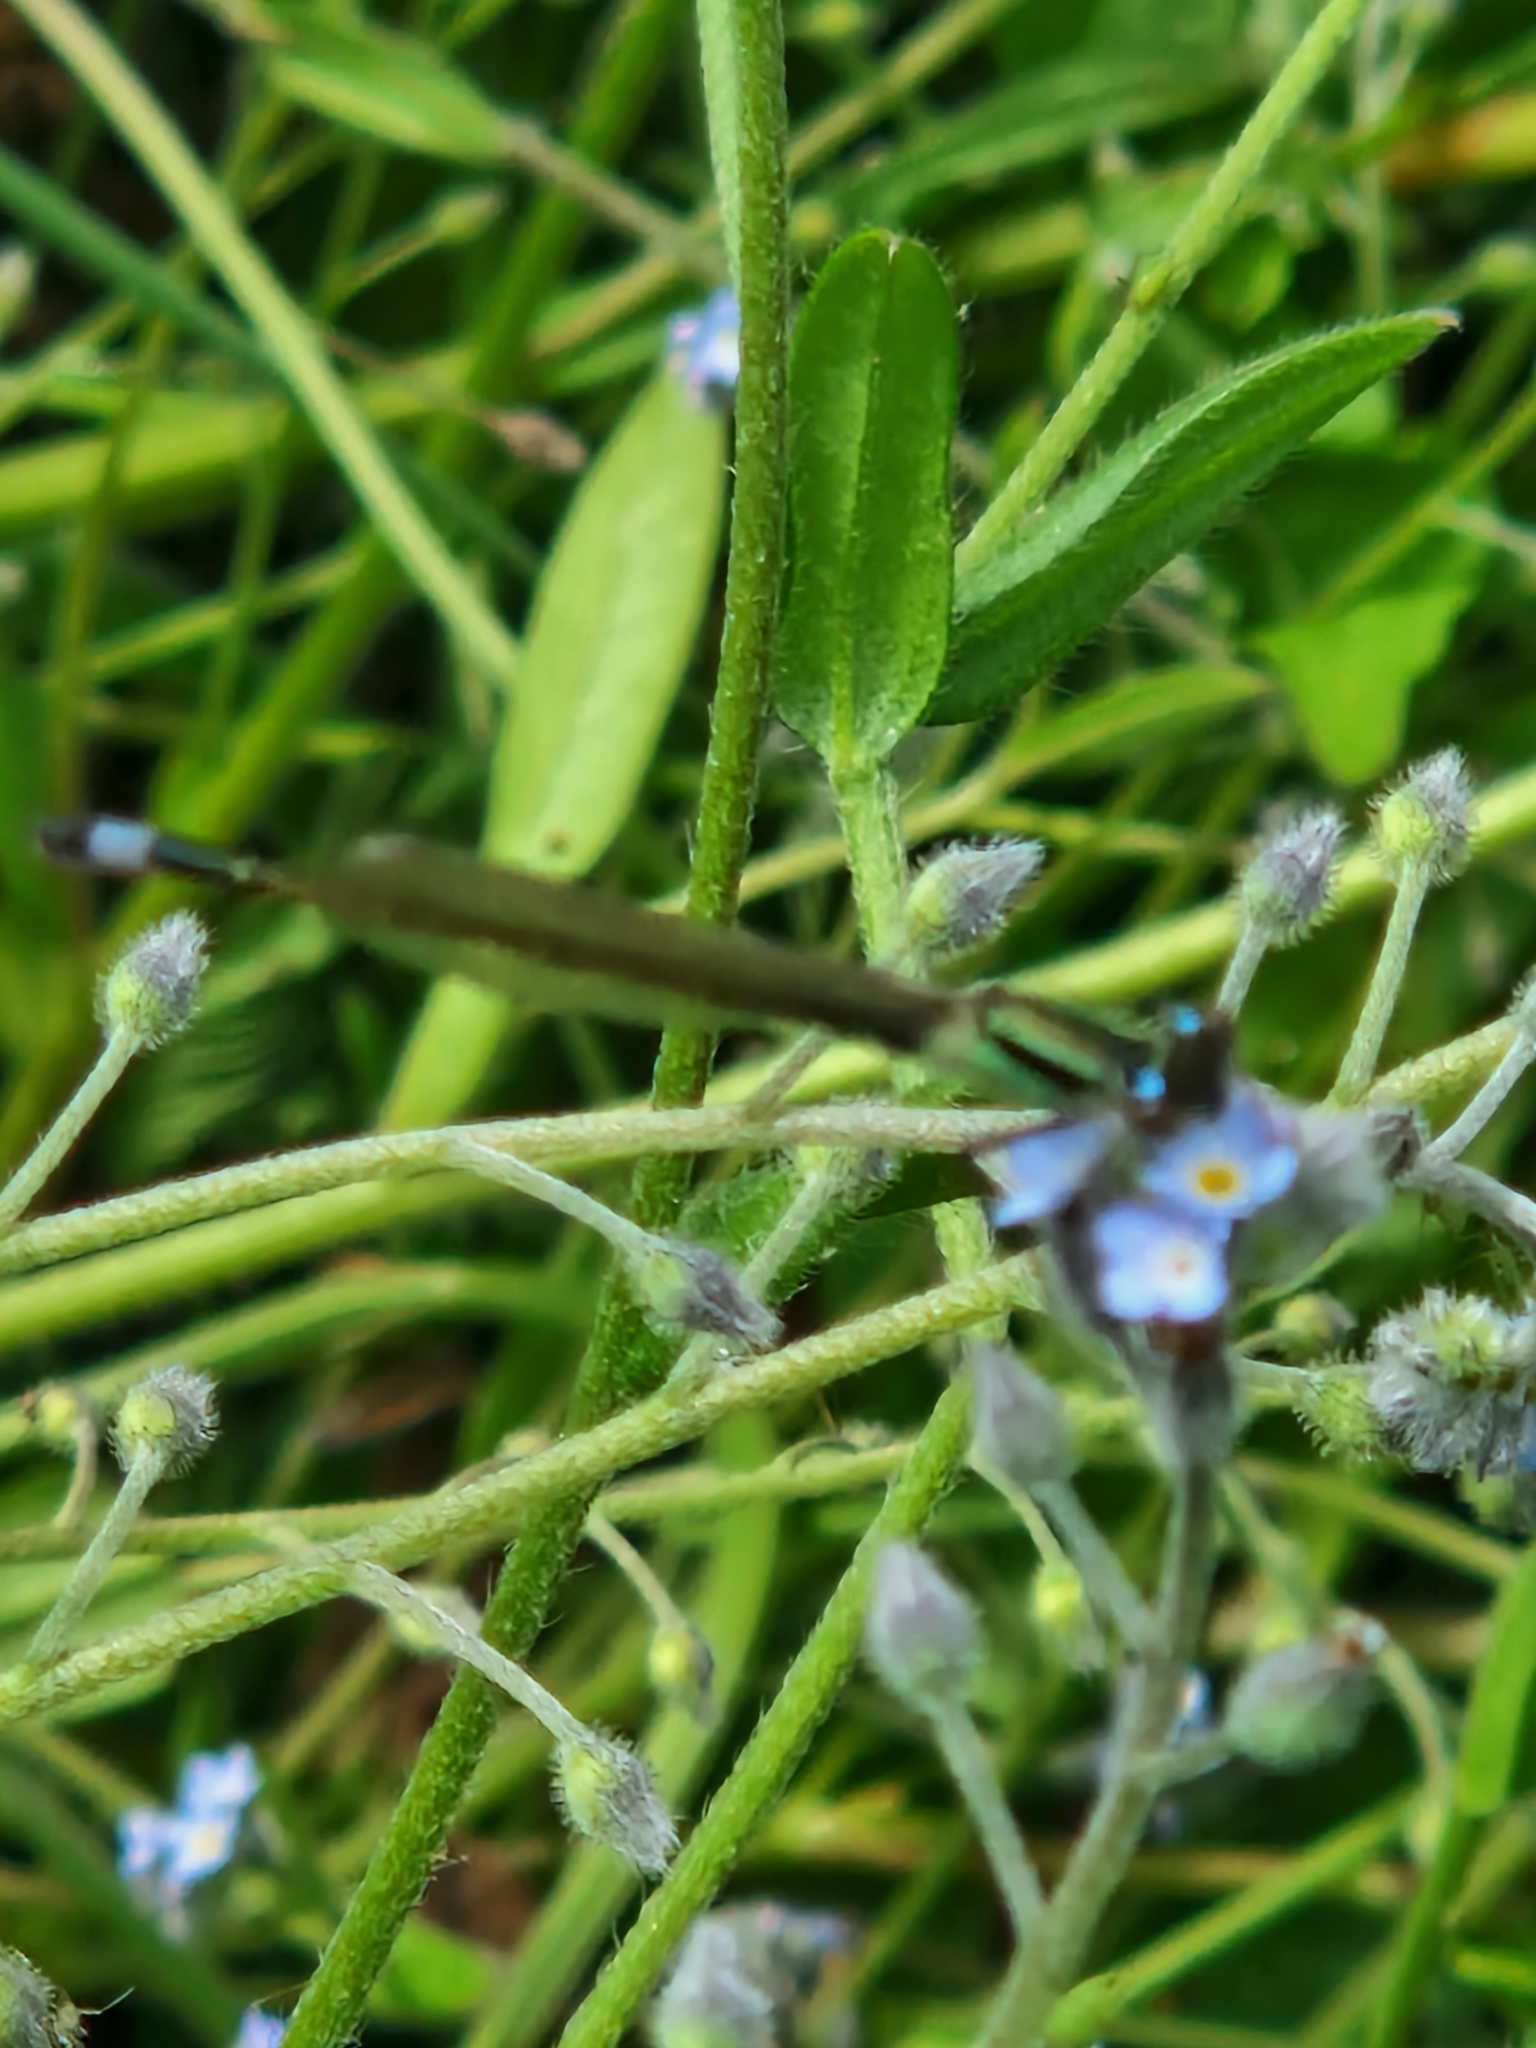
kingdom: Animalia
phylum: Arthropoda
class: Insecta
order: Odonata
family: Coenagrionidae
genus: Ischnura
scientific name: Ischnura elegans
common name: Blue-tailed damselfly
